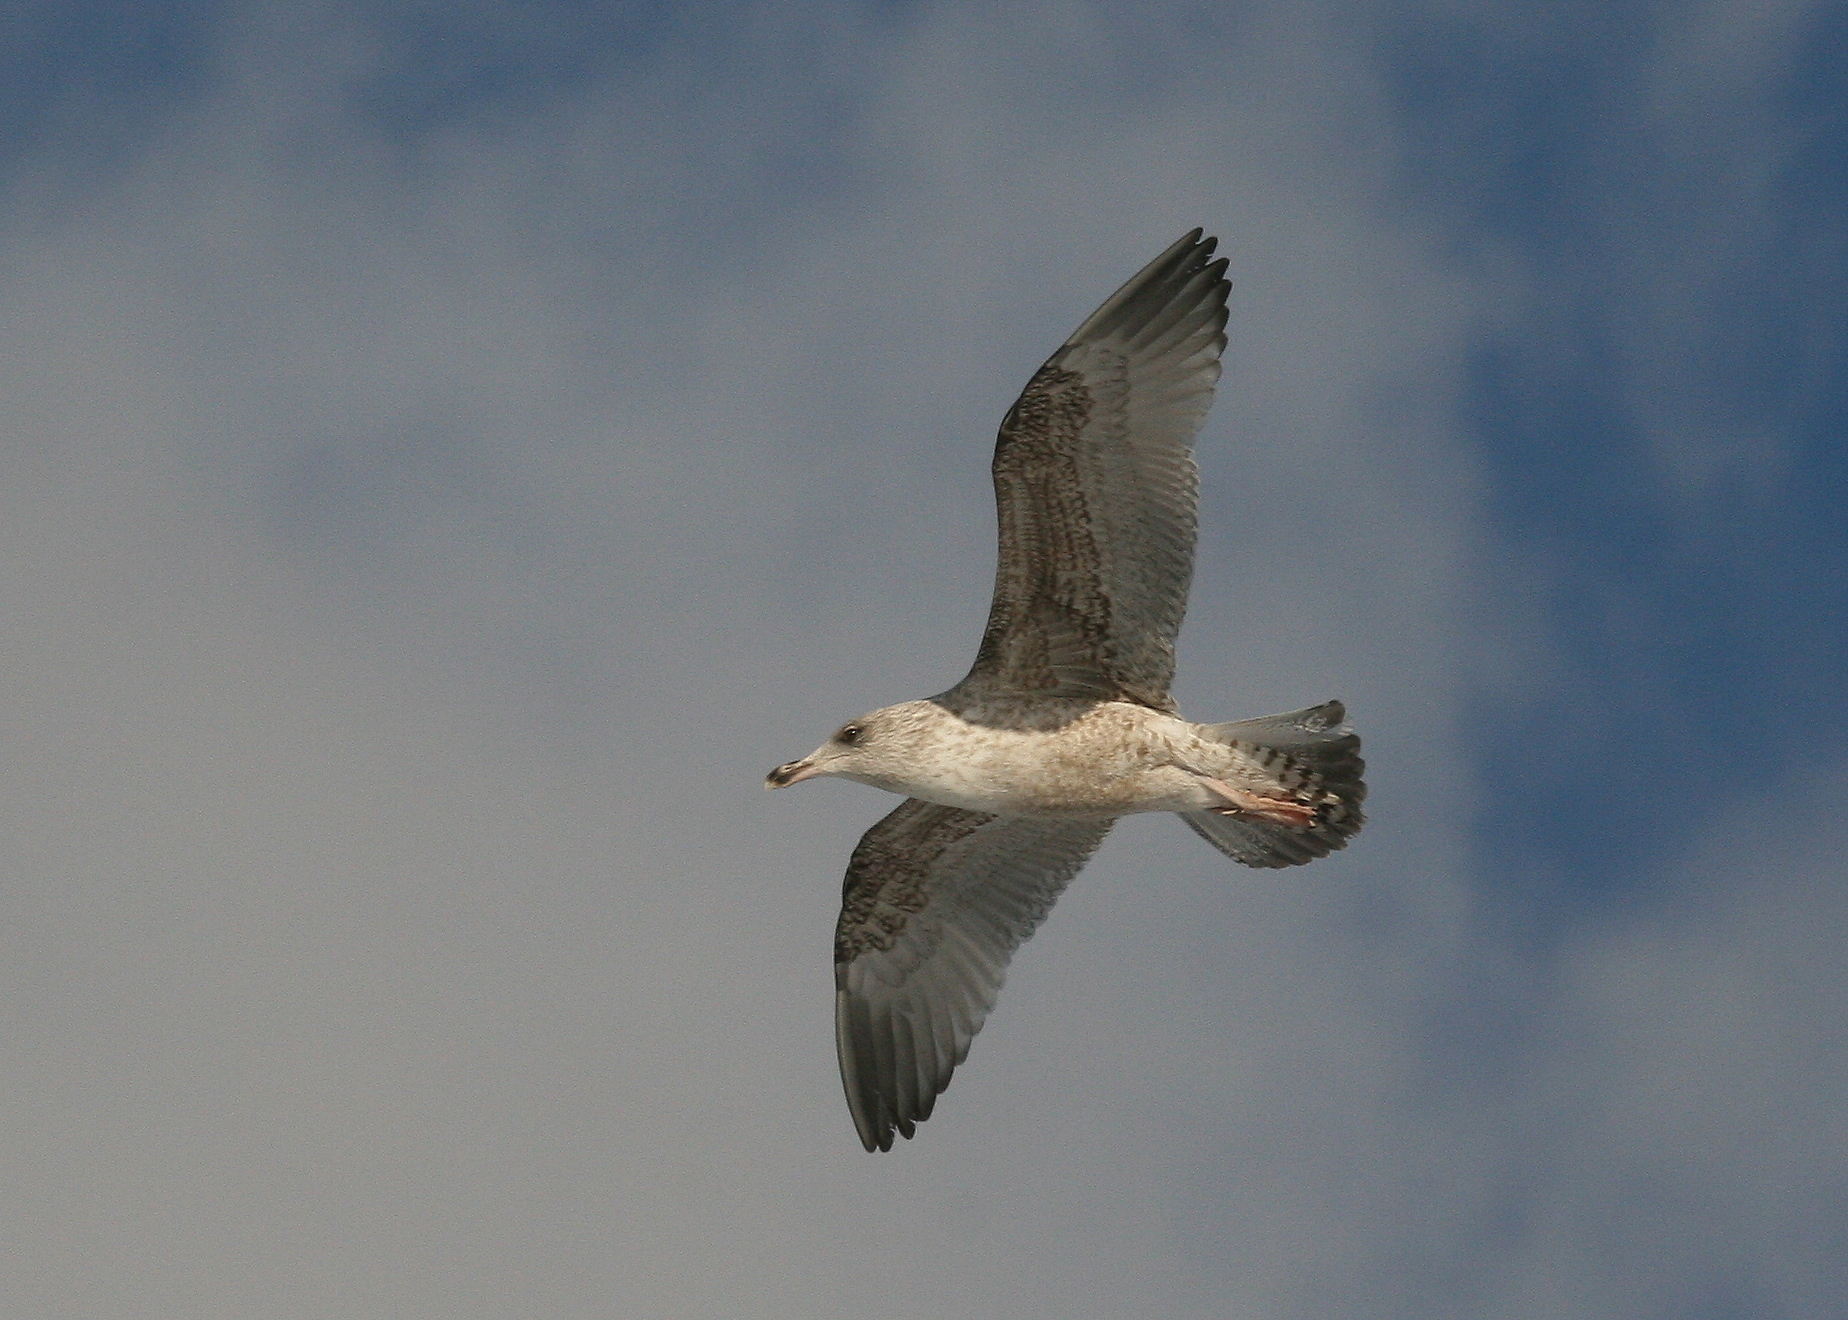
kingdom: Animalia
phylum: Chordata
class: Aves
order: Charadriiformes
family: Laridae
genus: Larus
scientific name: Larus argentatus
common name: Herring gull
